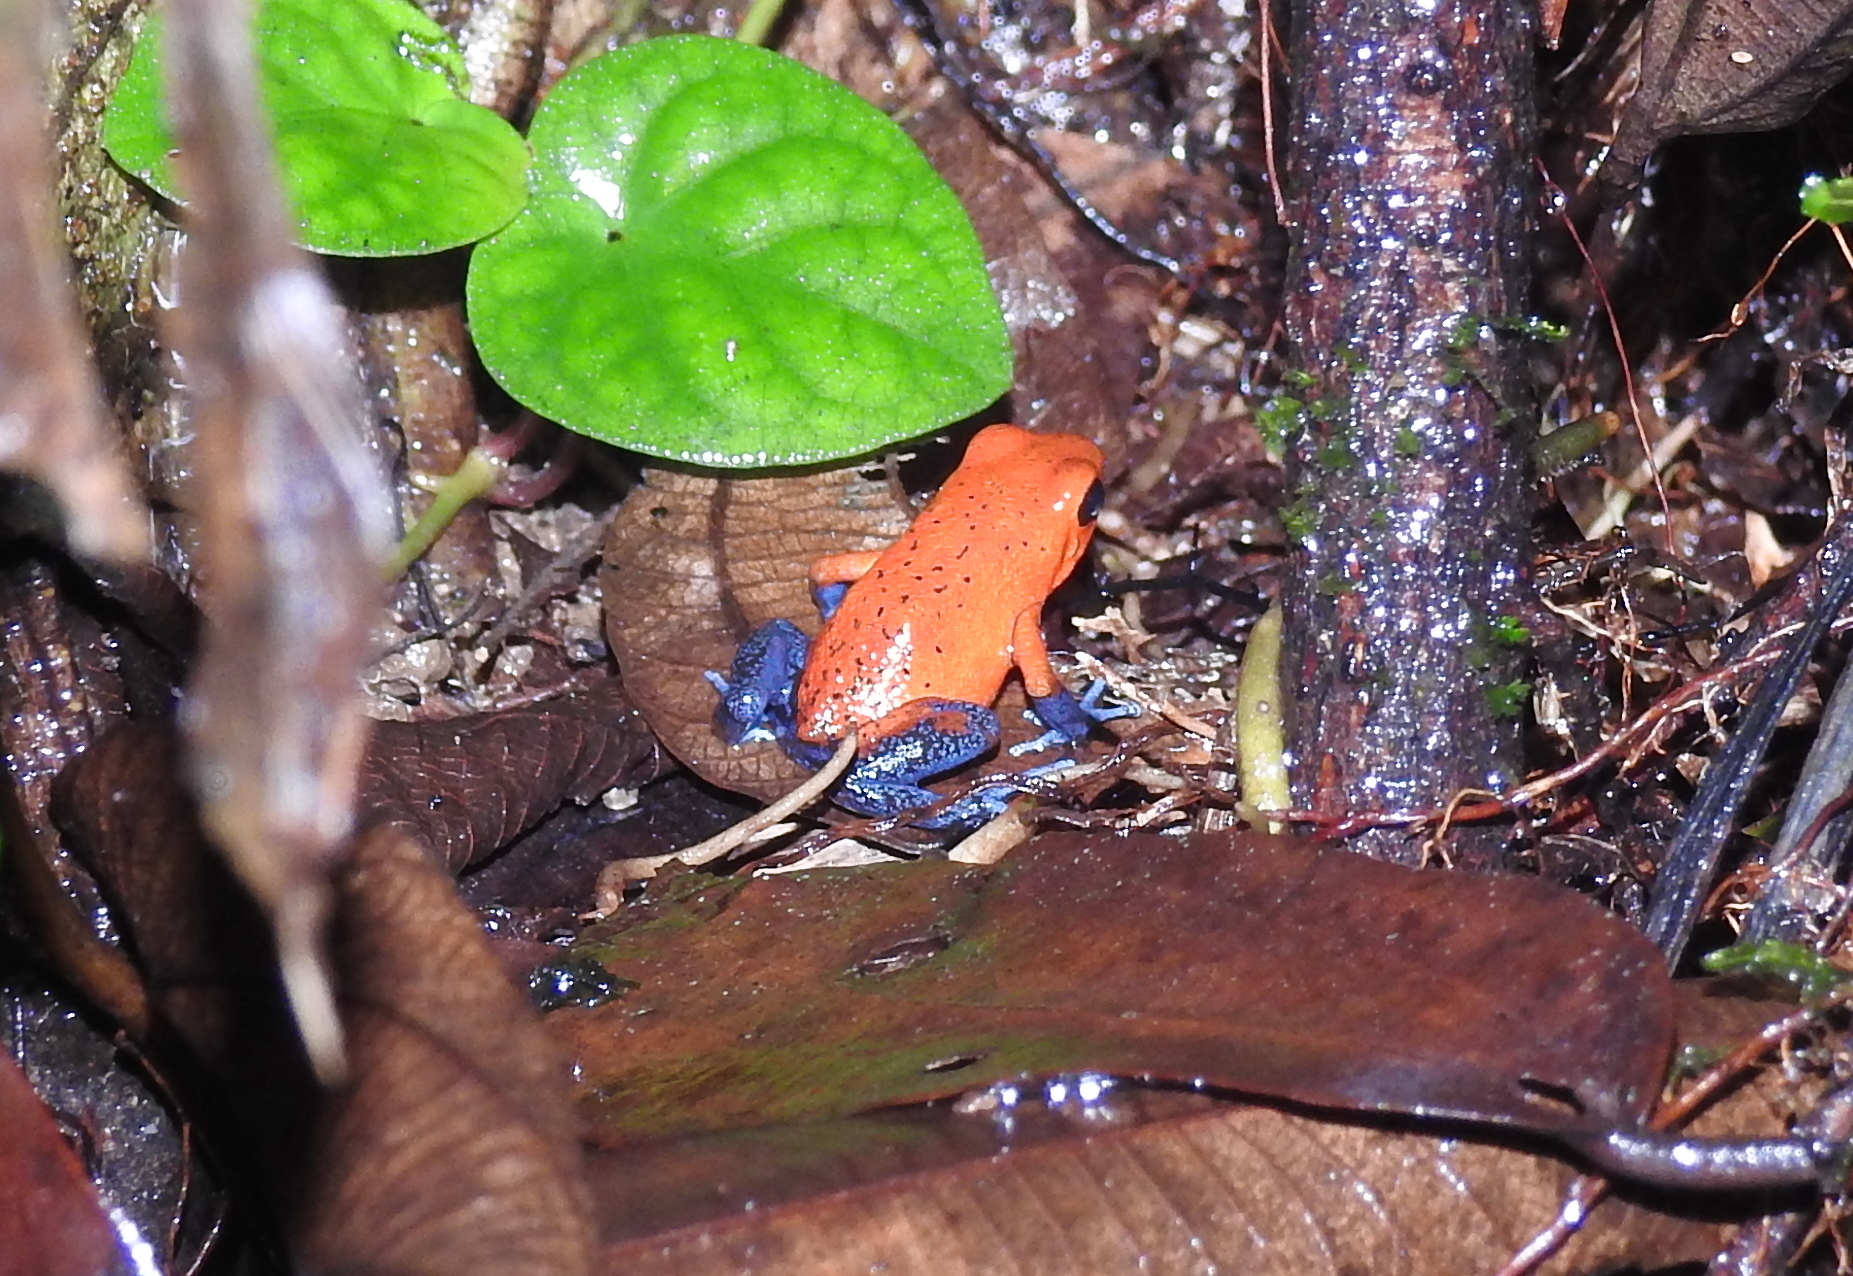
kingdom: Animalia
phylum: Chordata
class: Amphibia
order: Anura
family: Dendrobatidae
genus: Oophaga
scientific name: Oophaga pumilio
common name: Flaming poison frog
